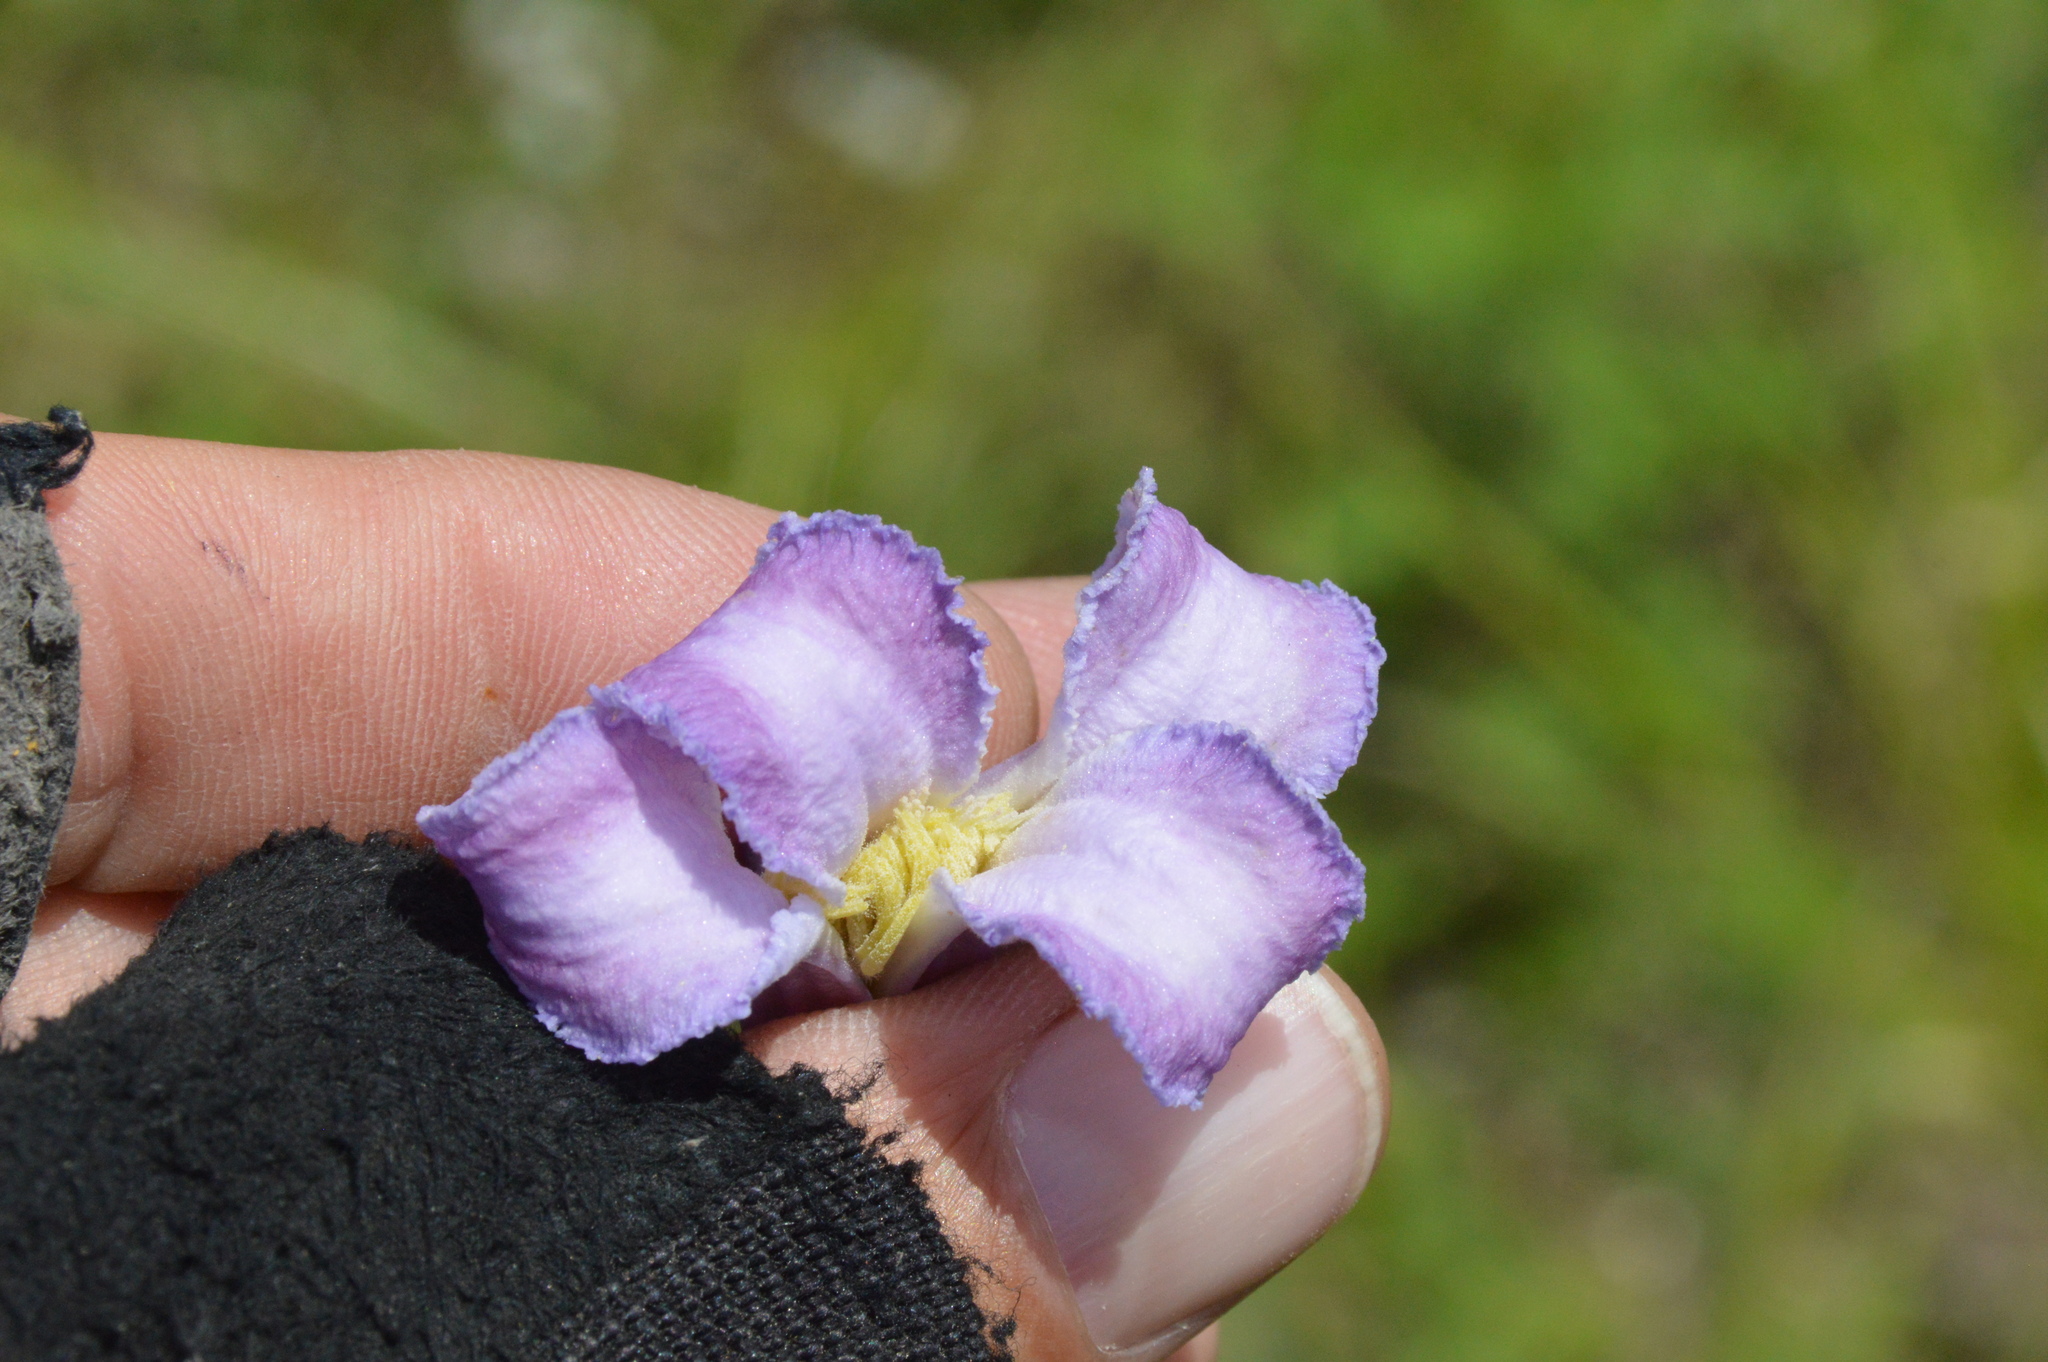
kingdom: Plantae
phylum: Tracheophyta
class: Magnoliopsida
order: Ranunculales
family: Ranunculaceae
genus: Clematis
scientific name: Clematis crispa
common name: Curly clematis
